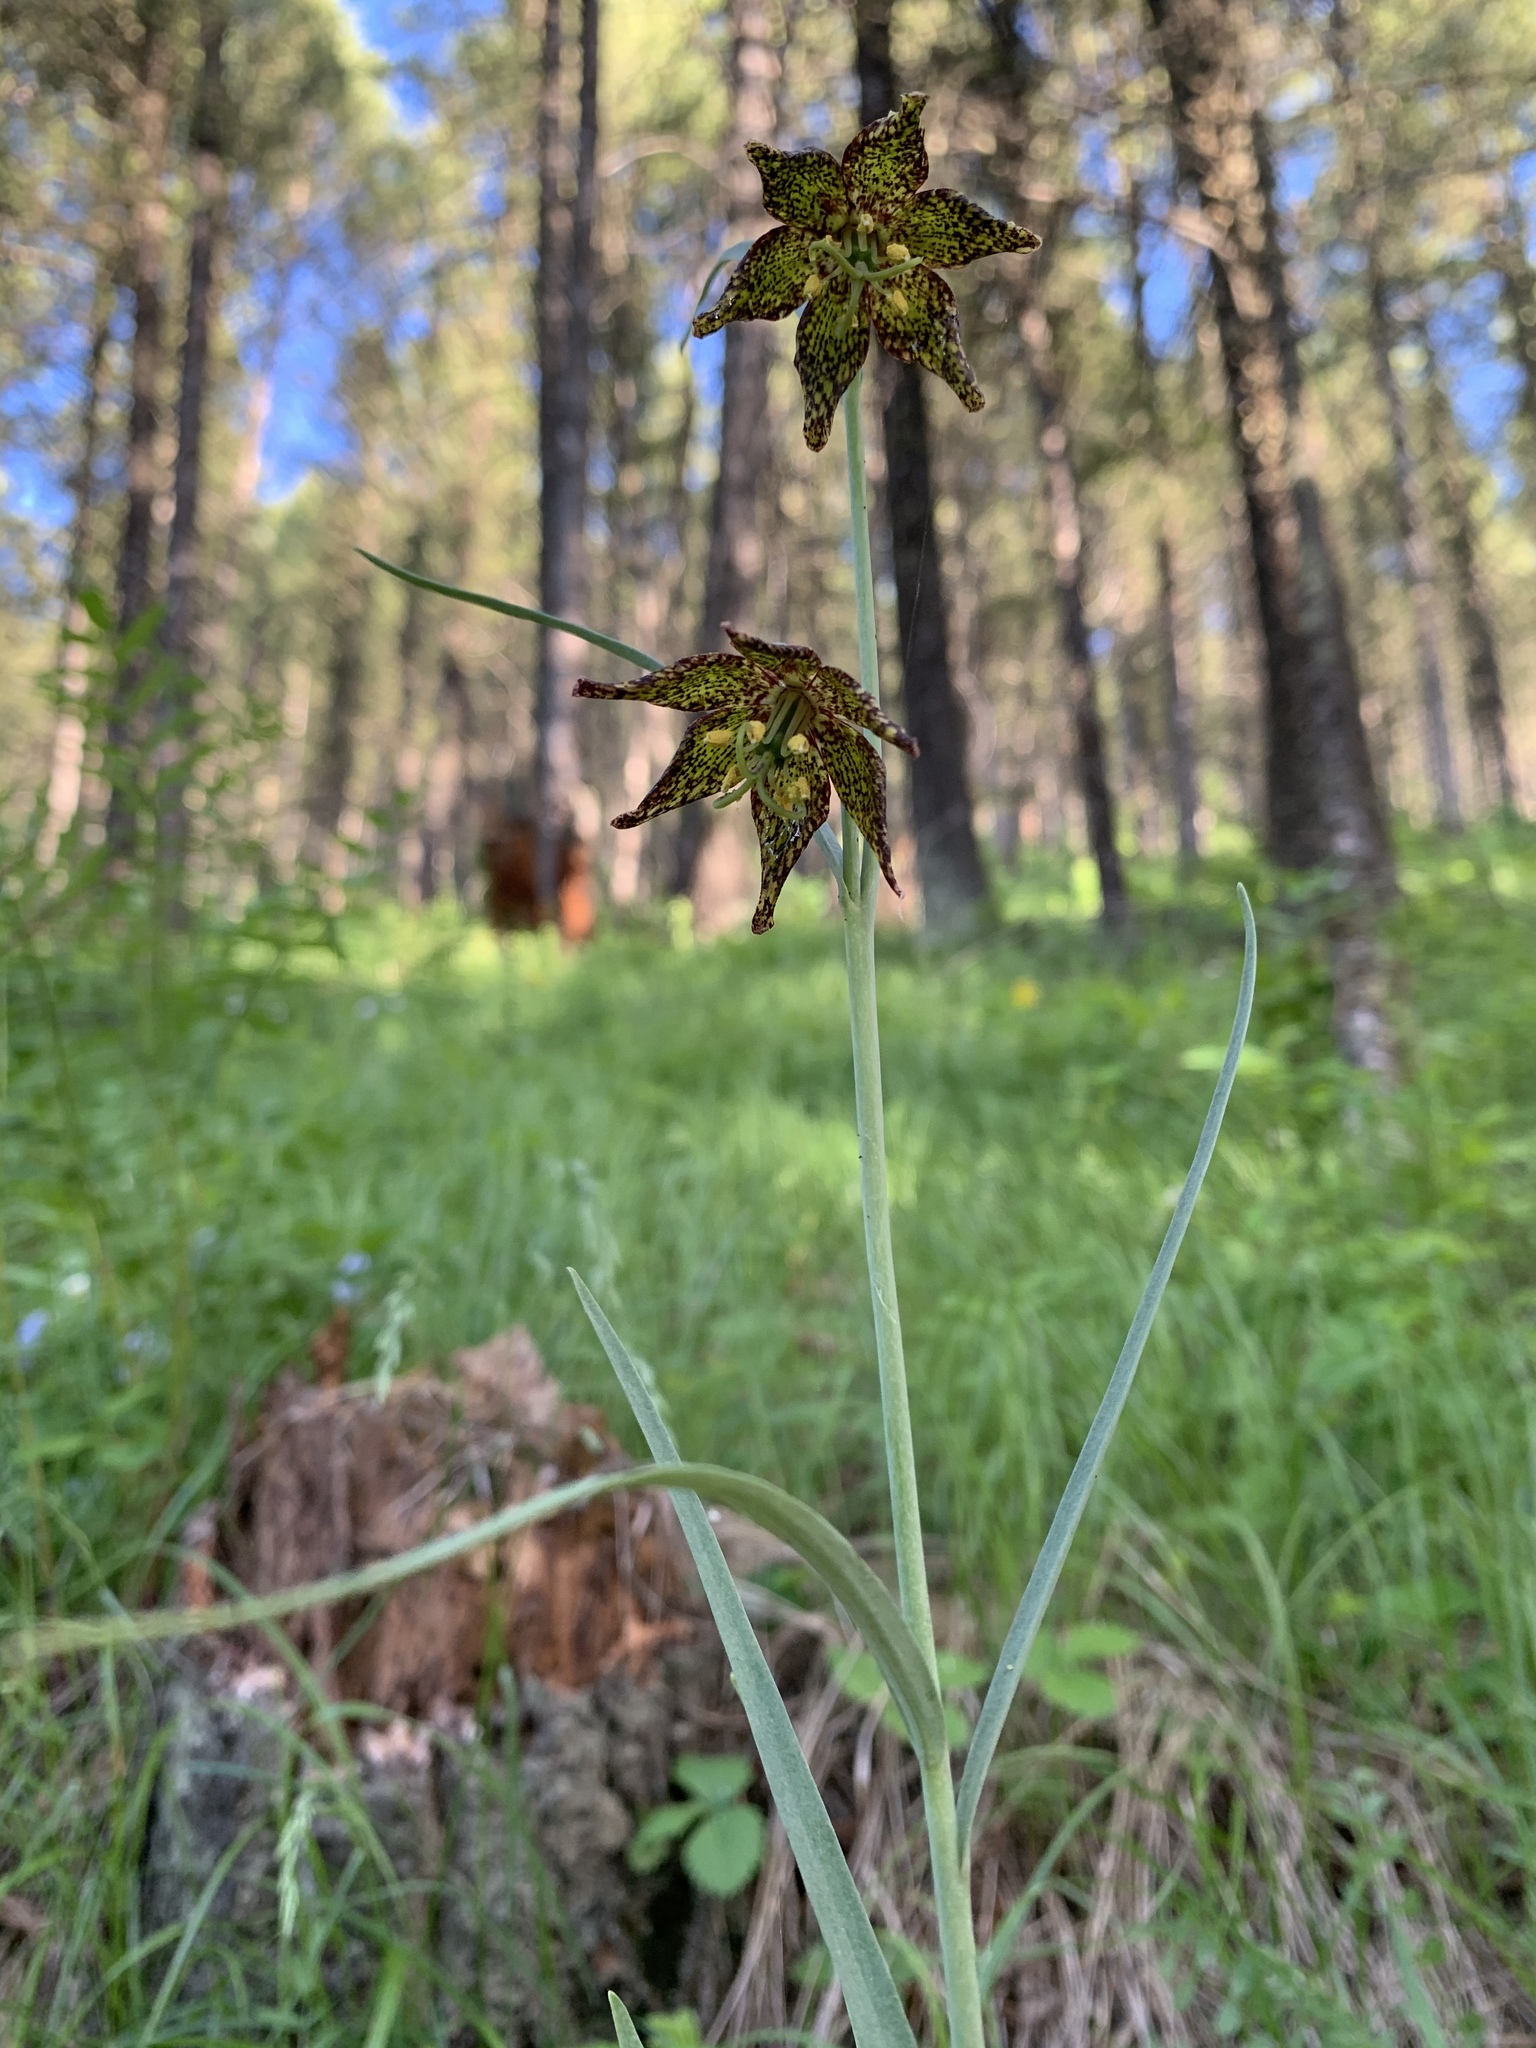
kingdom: Plantae
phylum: Tracheophyta
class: Liliopsida
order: Liliales
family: Liliaceae
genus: Fritillaria
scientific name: Fritillaria atropurpurea
